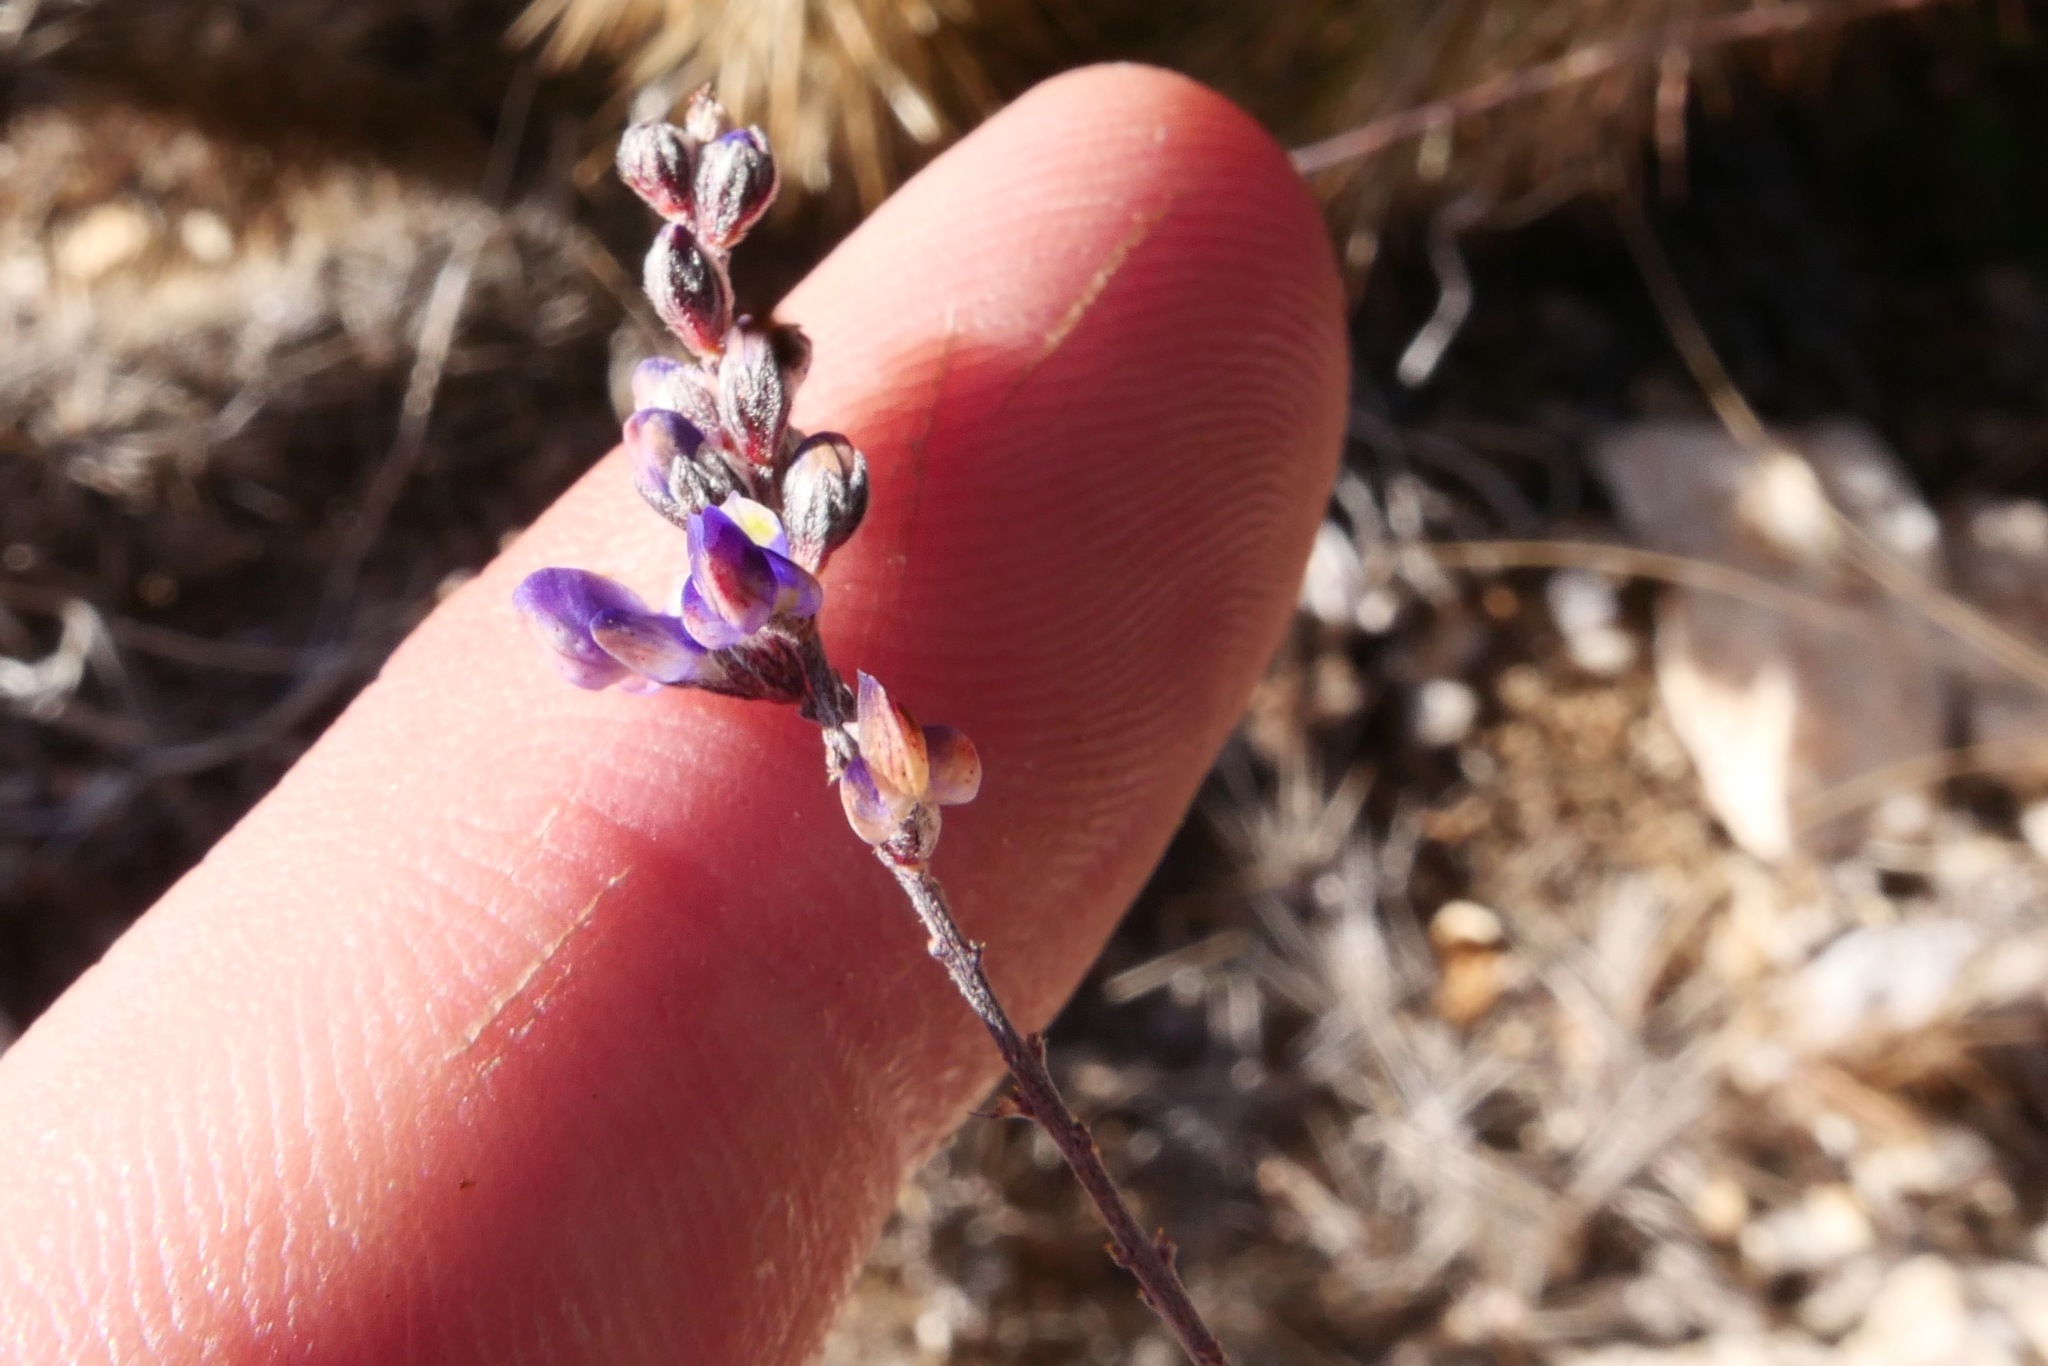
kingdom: Plantae
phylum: Tracheophyta
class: Magnoliopsida
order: Fabales
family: Fabaceae
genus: Marina
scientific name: Marina parryi
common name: Parry's marina
